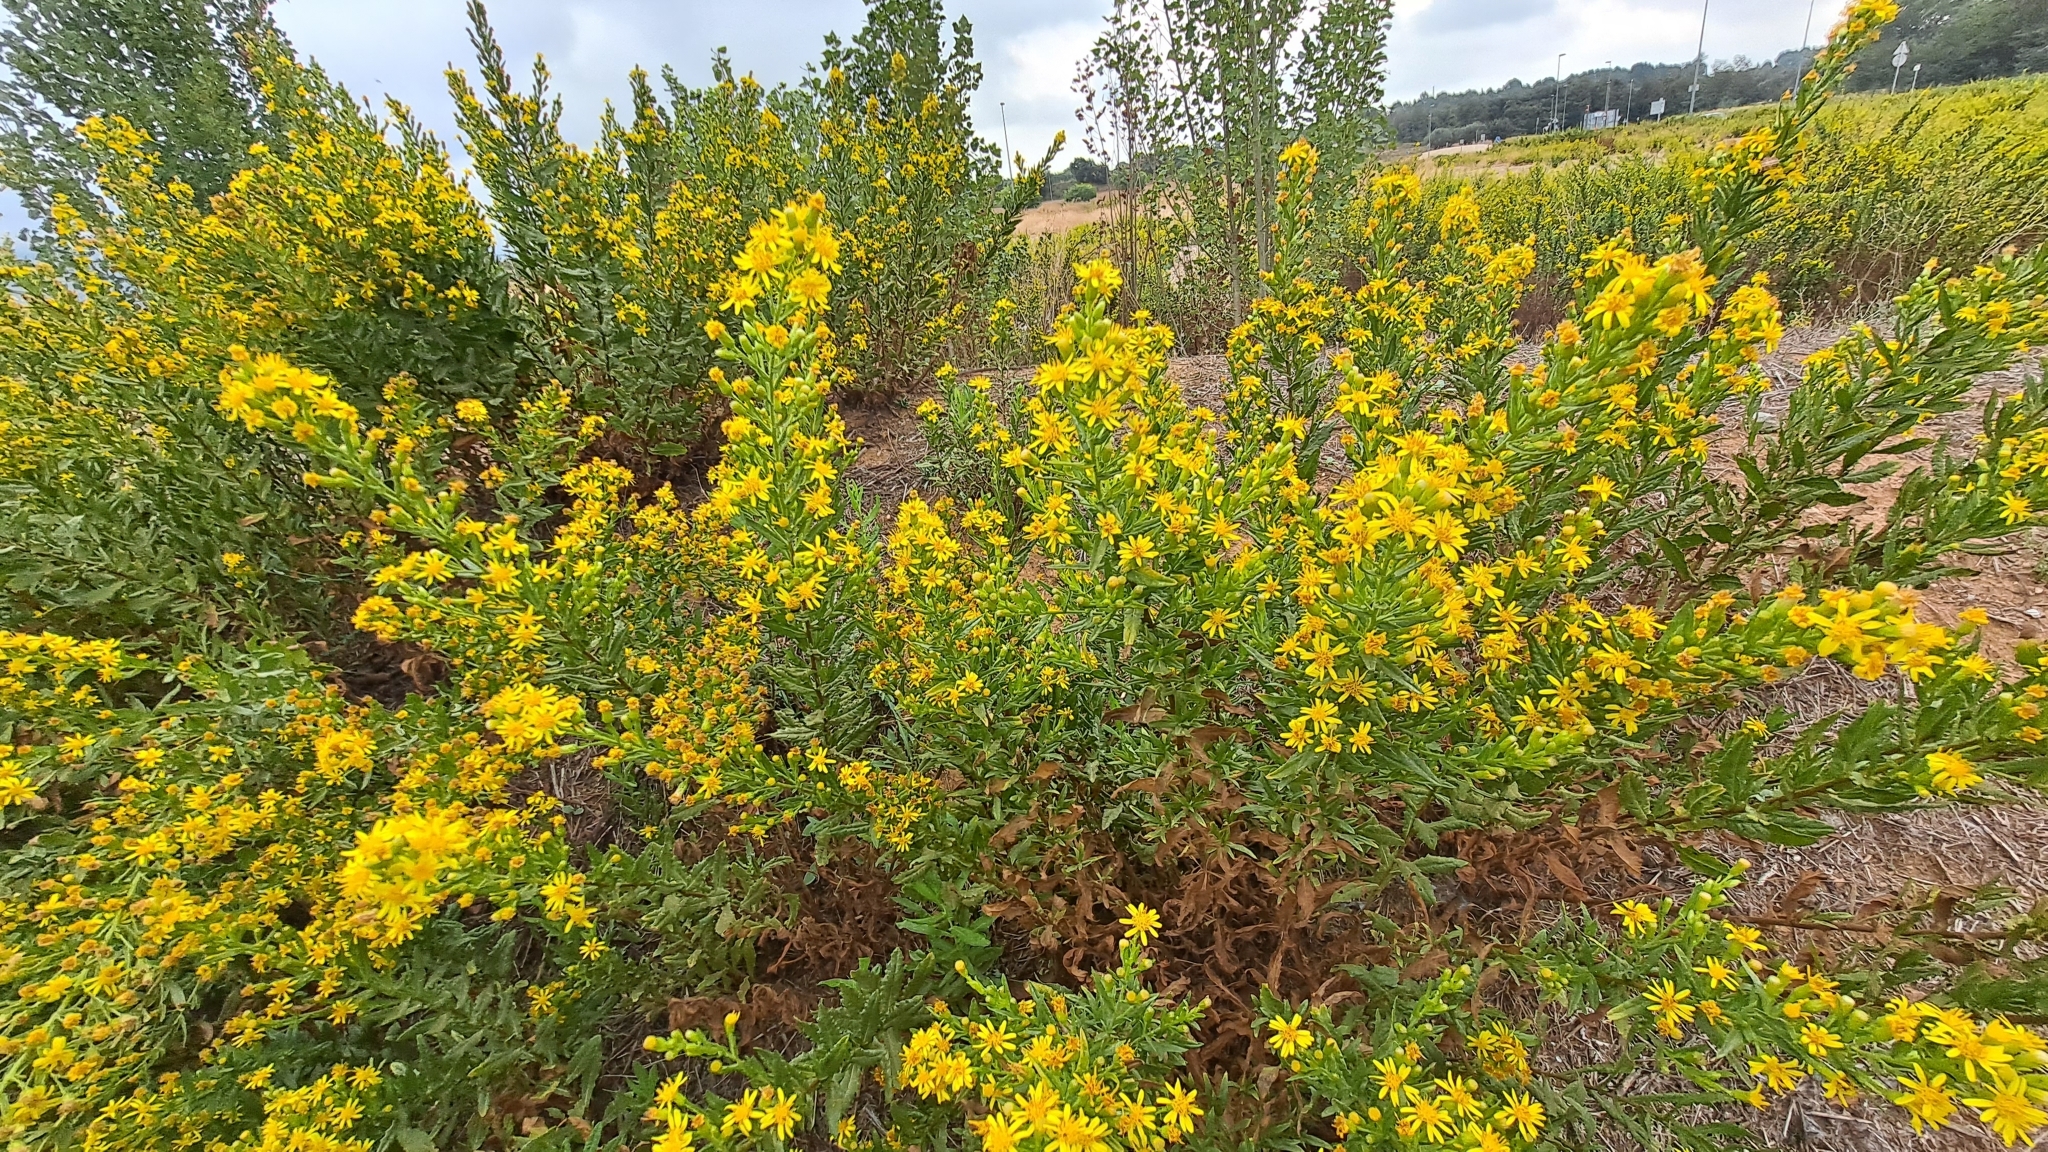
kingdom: Plantae
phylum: Tracheophyta
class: Magnoliopsida
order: Asterales
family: Asteraceae
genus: Dittrichia
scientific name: Dittrichia viscosa
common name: Woody fleabane
